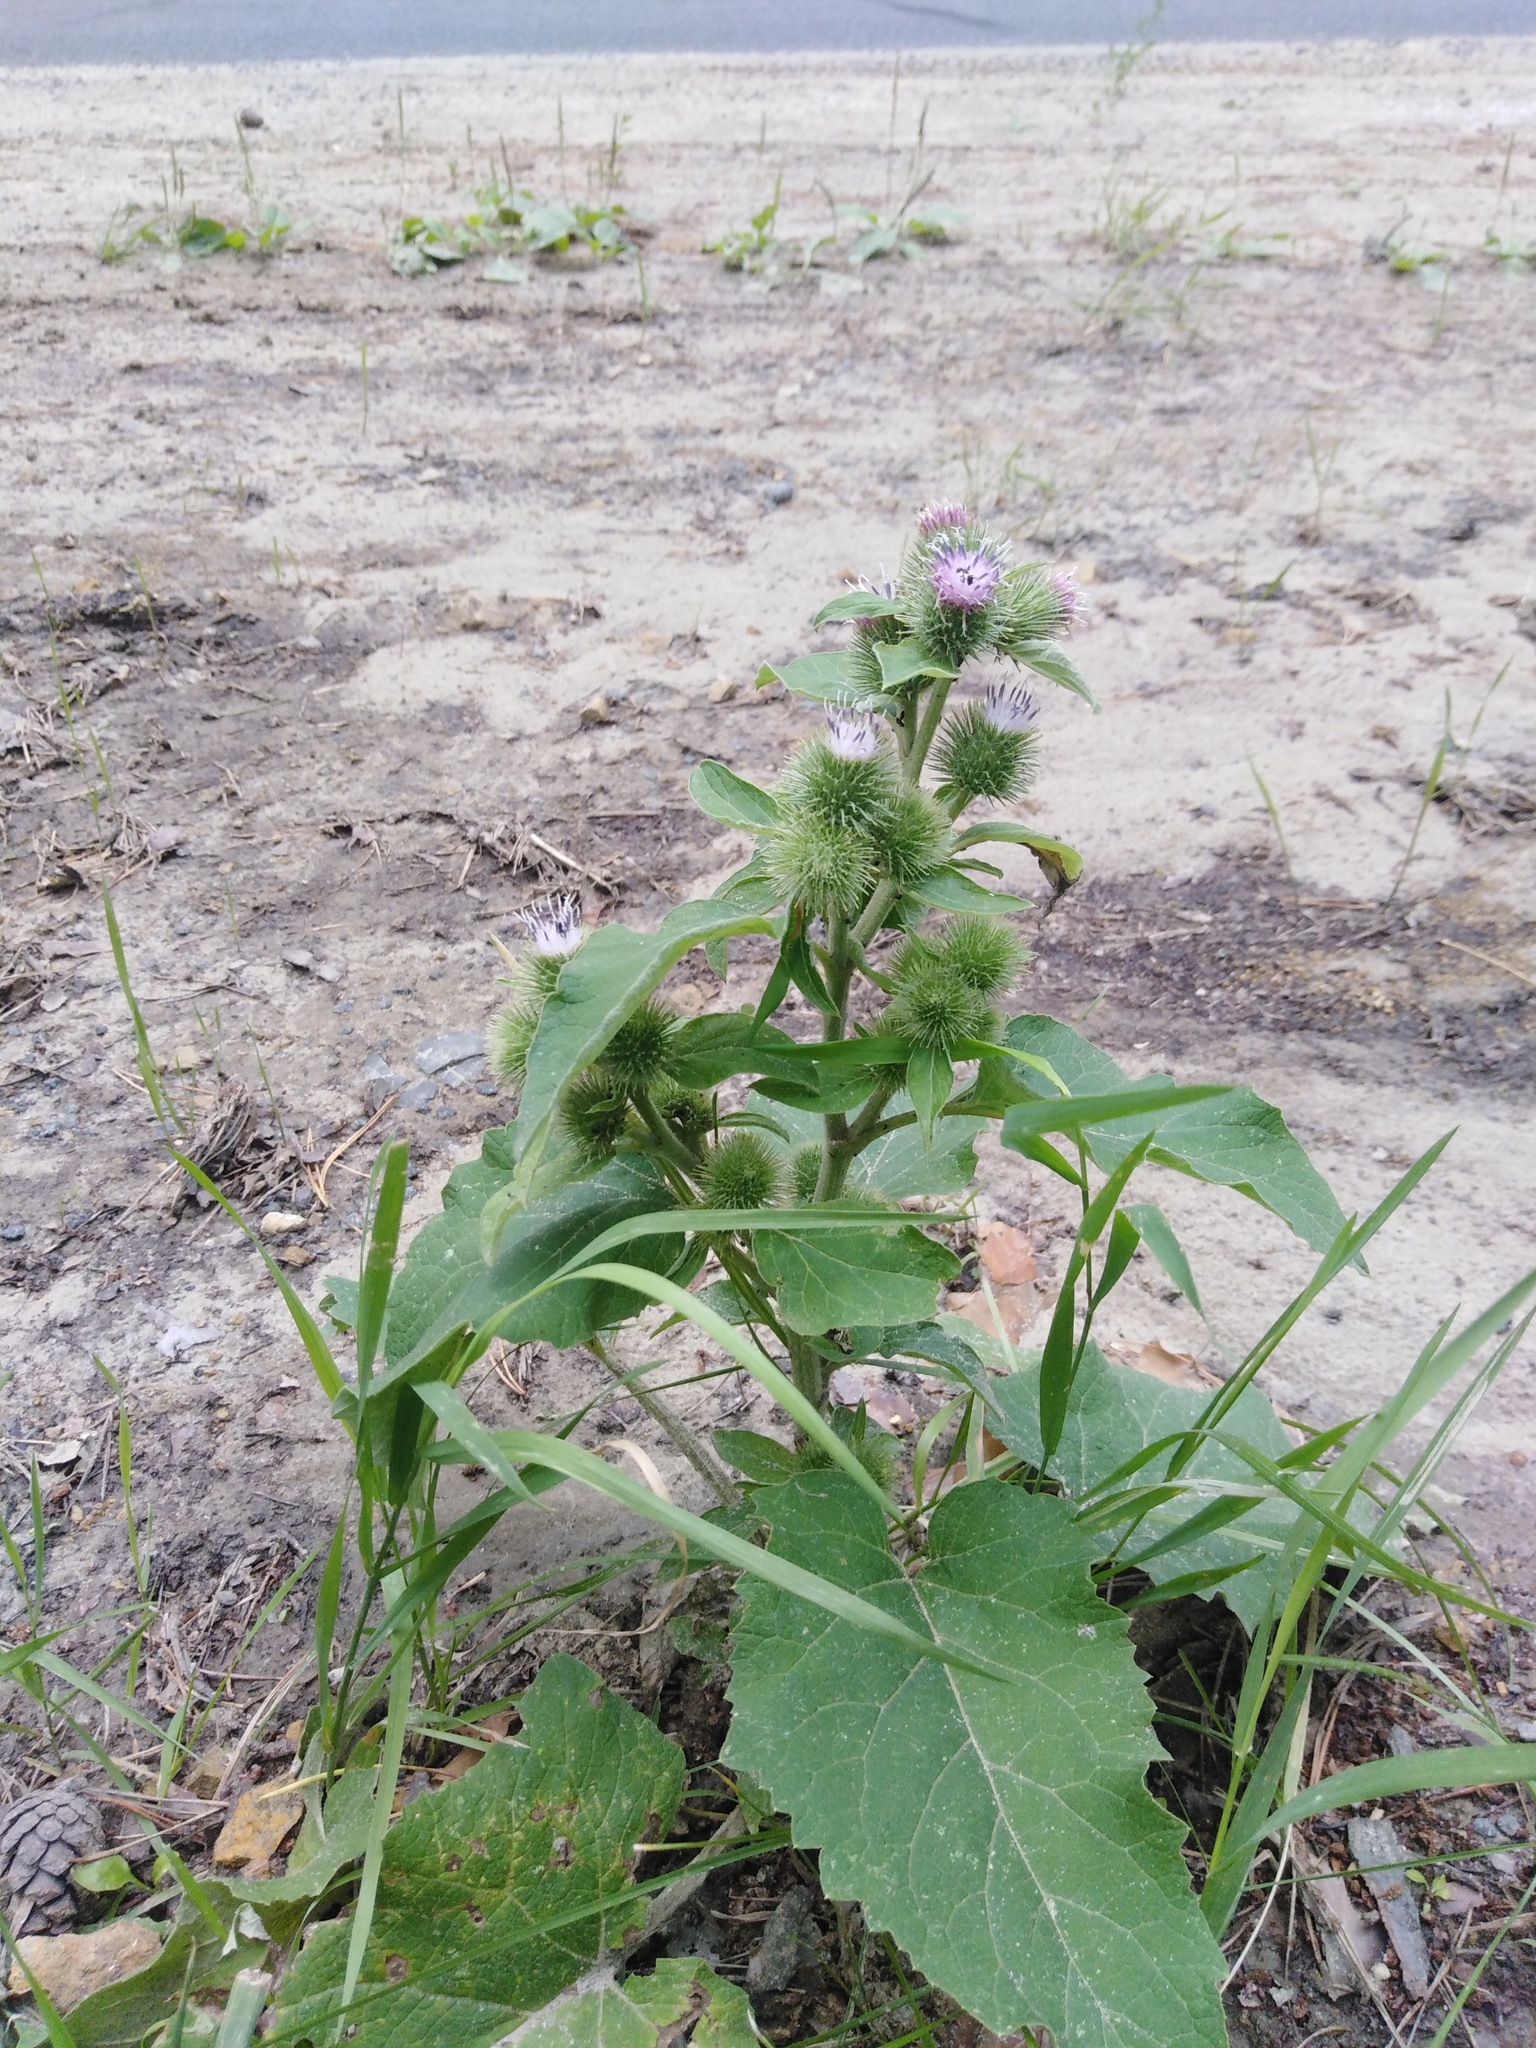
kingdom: Plantae
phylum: Tracheophyta
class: Magnoliopsida
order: Asterales
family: Asteraceae
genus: Arctium
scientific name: Arctium minus
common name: Lesser burdock
